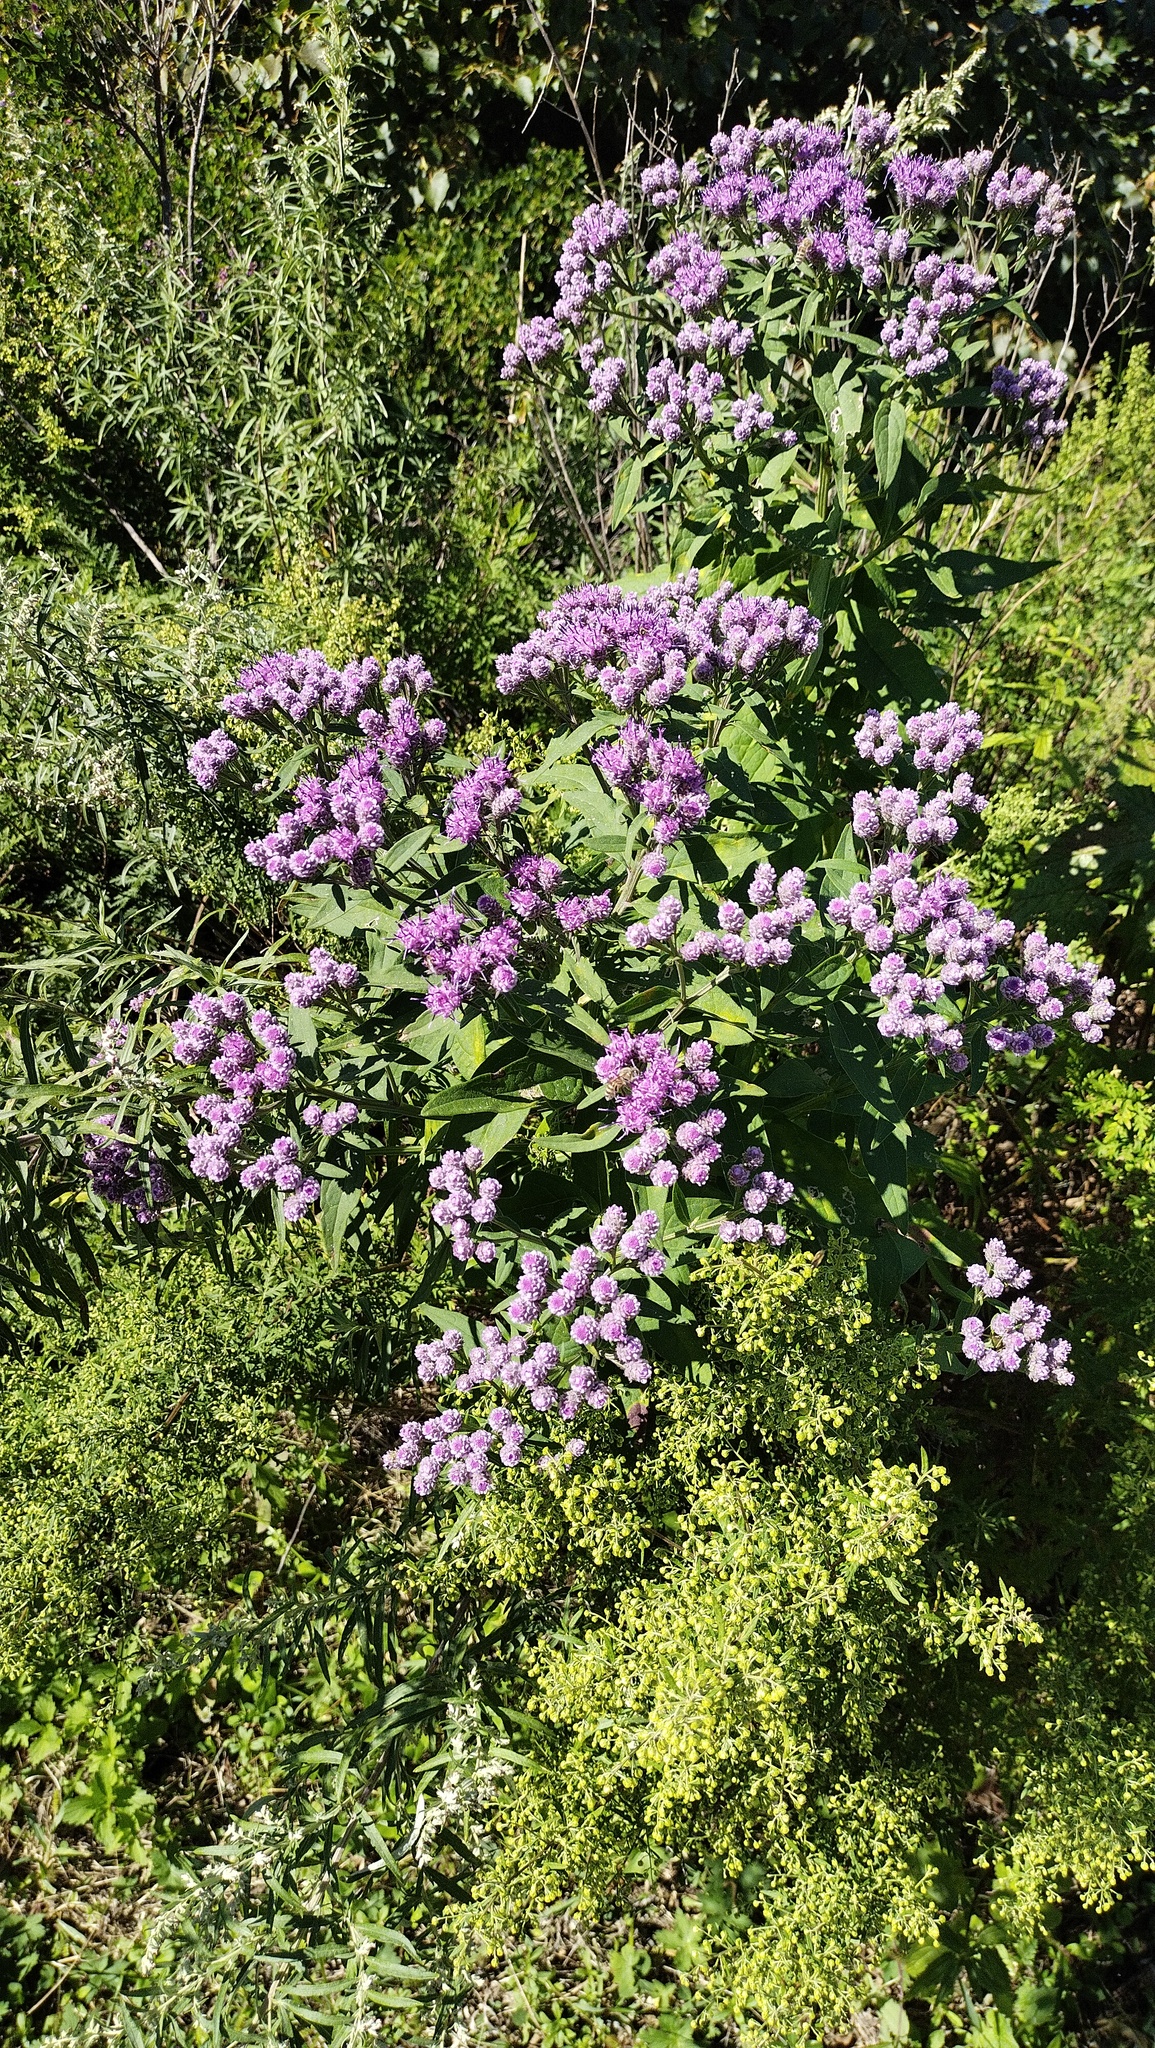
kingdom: Plantae
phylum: Tracheophyta
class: Magnoliopsida
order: Asterales
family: Asteraceae
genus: Saussurea
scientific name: Saussurea pulchella
